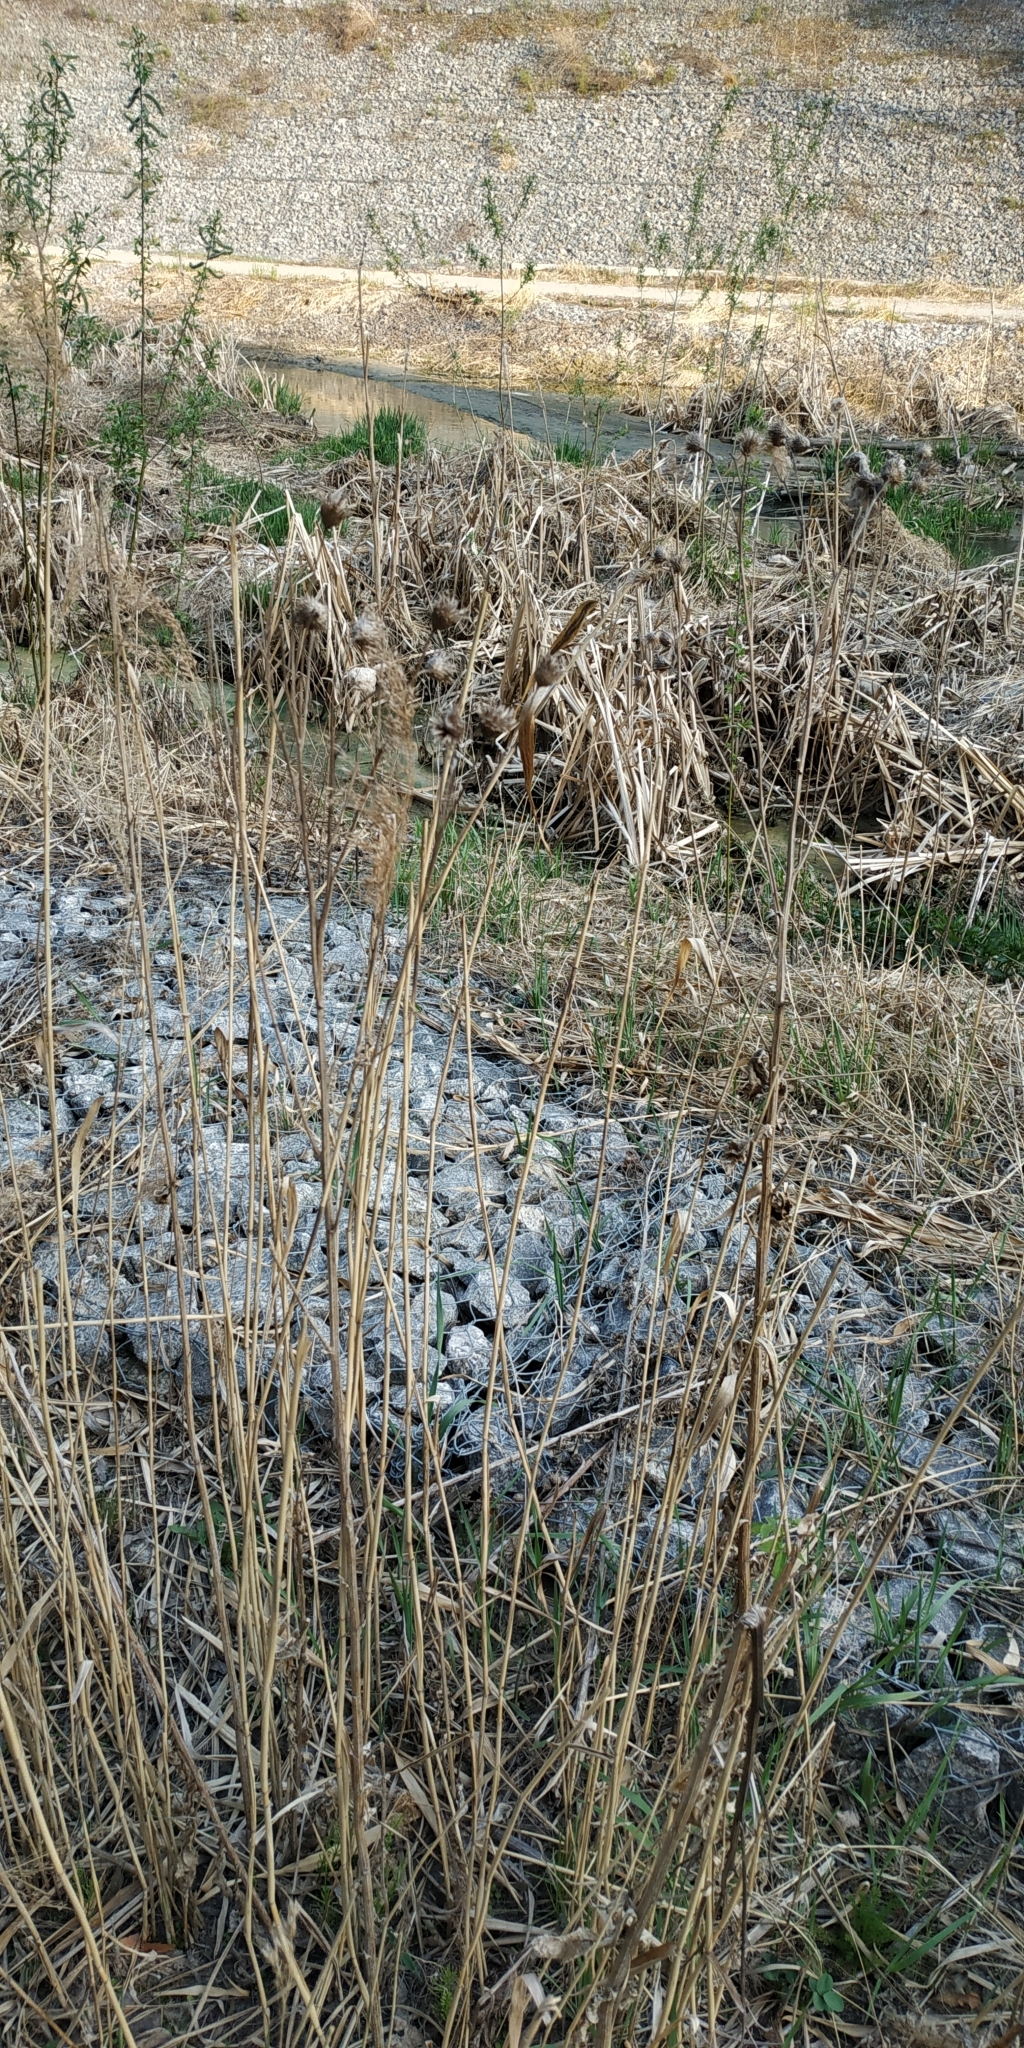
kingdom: Plantae
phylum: Tracheophyta
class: Magnoliopsida
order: Asterales
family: Asteraceae
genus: Centaurea
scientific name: Centaurea scabiosa
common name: Greater knapweed
